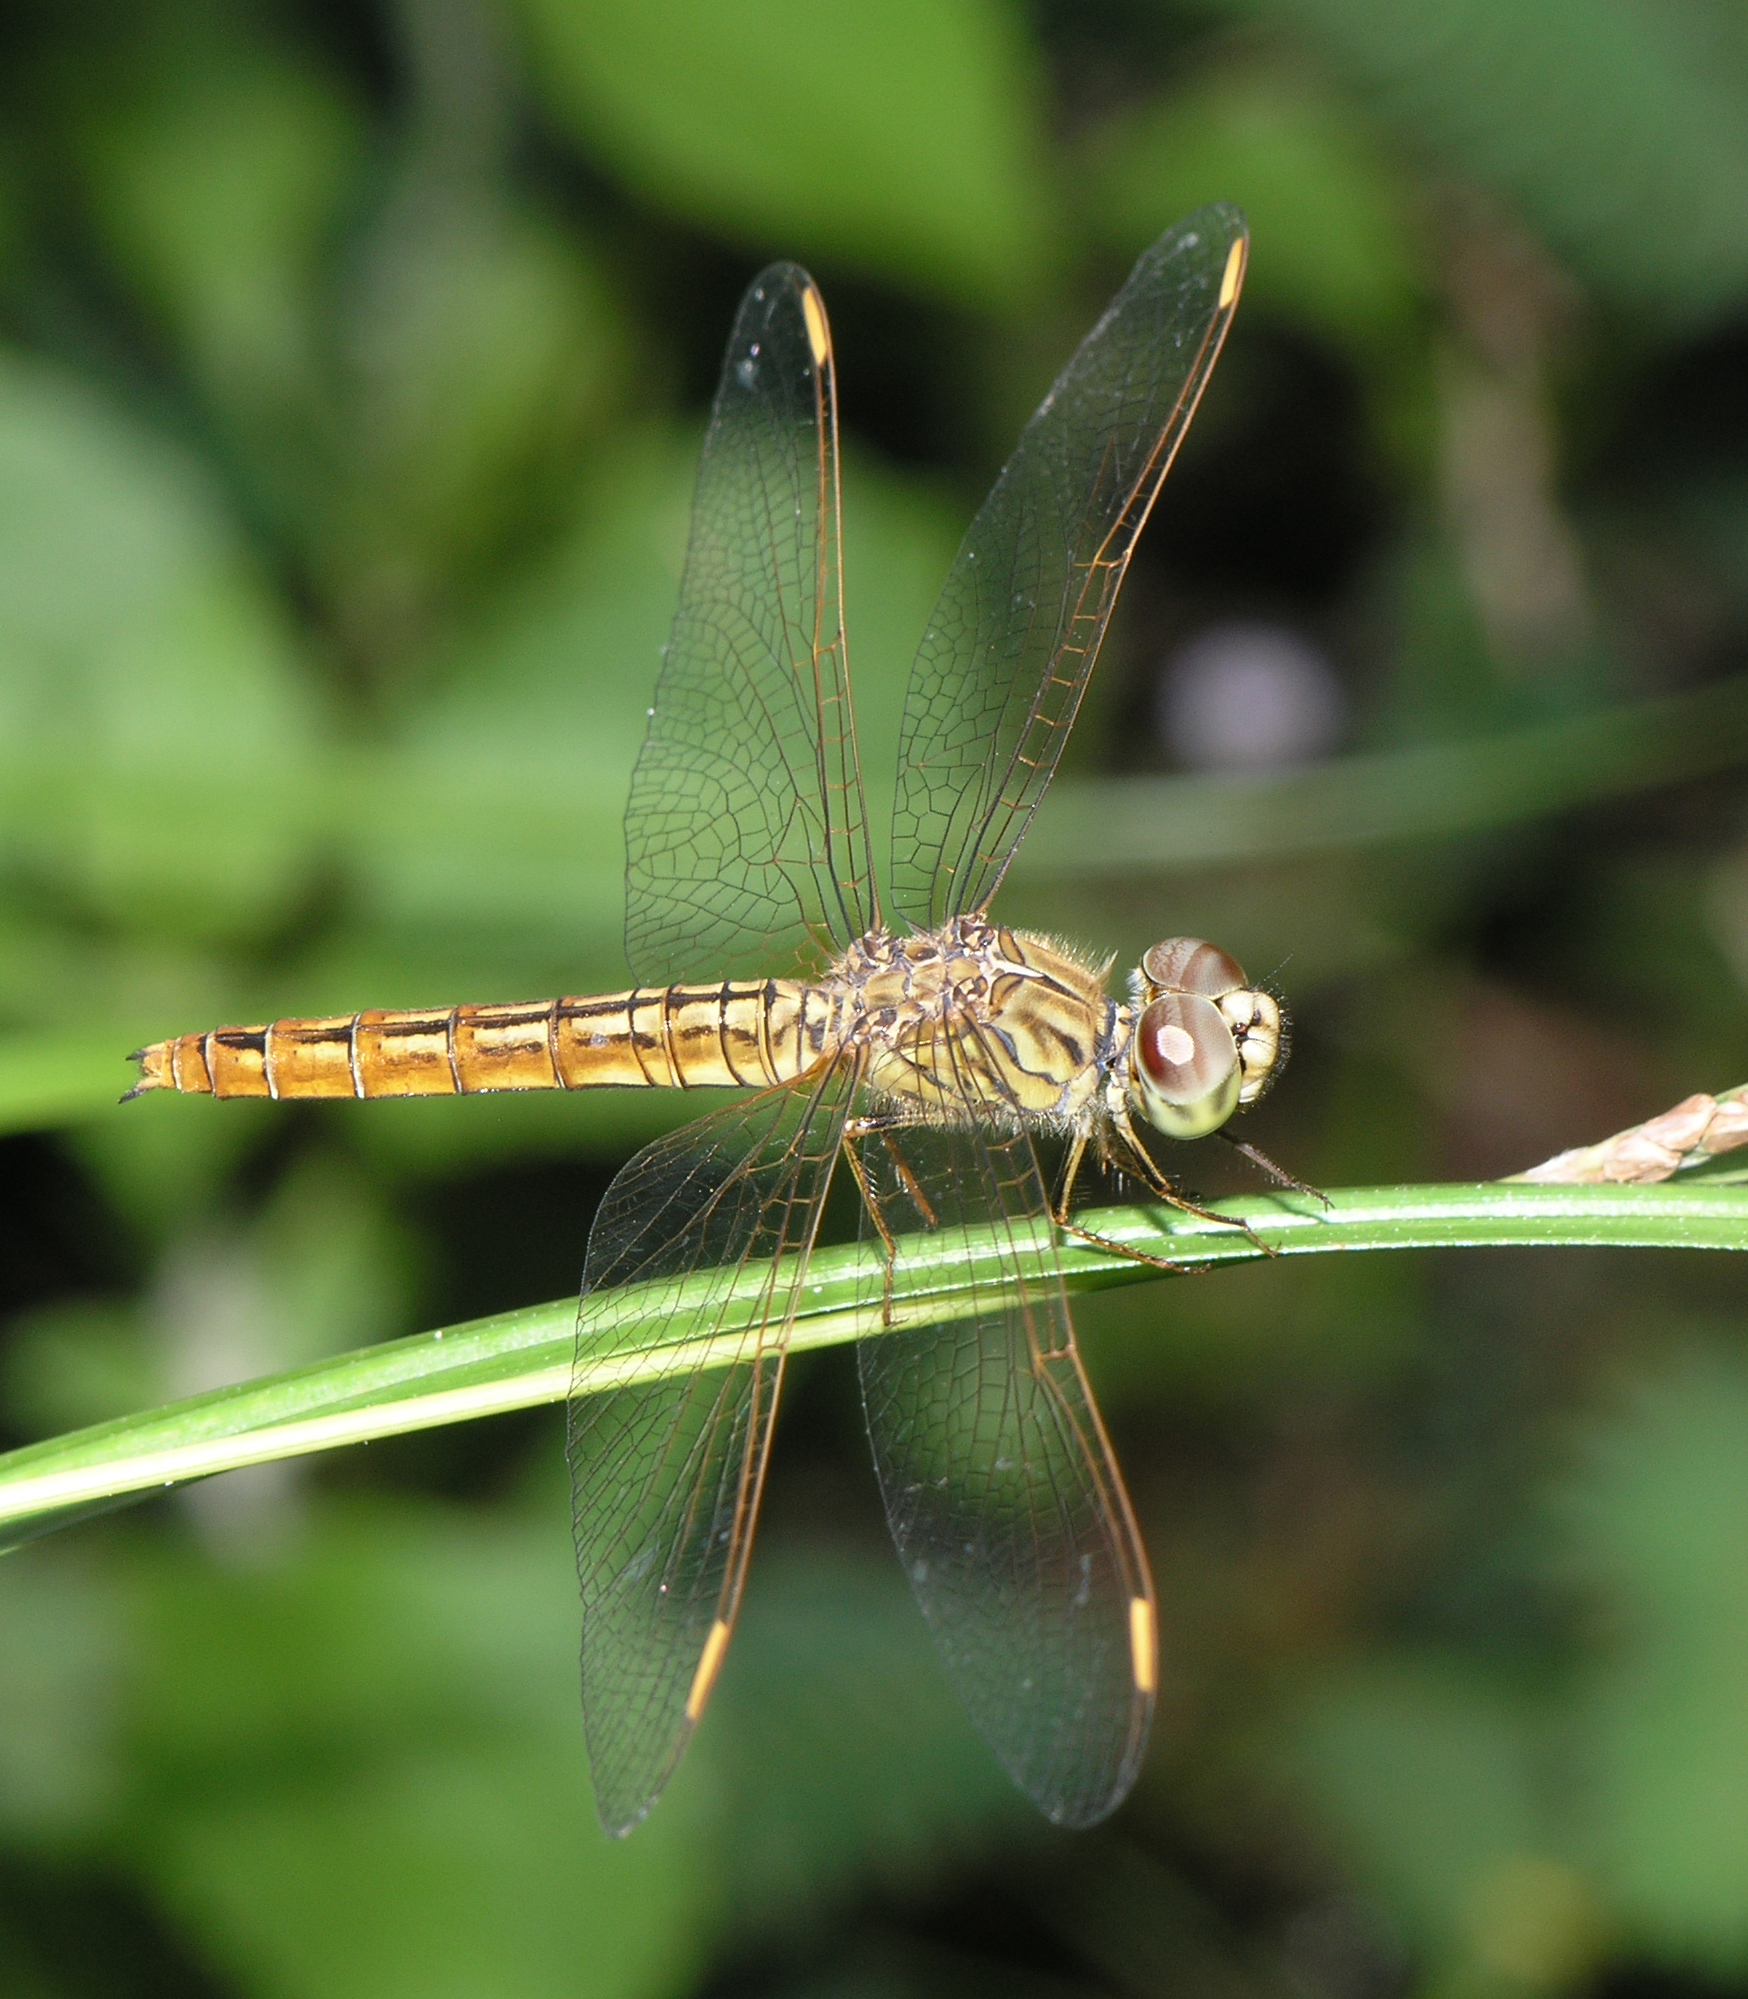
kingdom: Animalia
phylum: Arthropoda
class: Insecta
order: Odonata
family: Libellulidae
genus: Brachythemis
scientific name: Brachythemis contaminata
